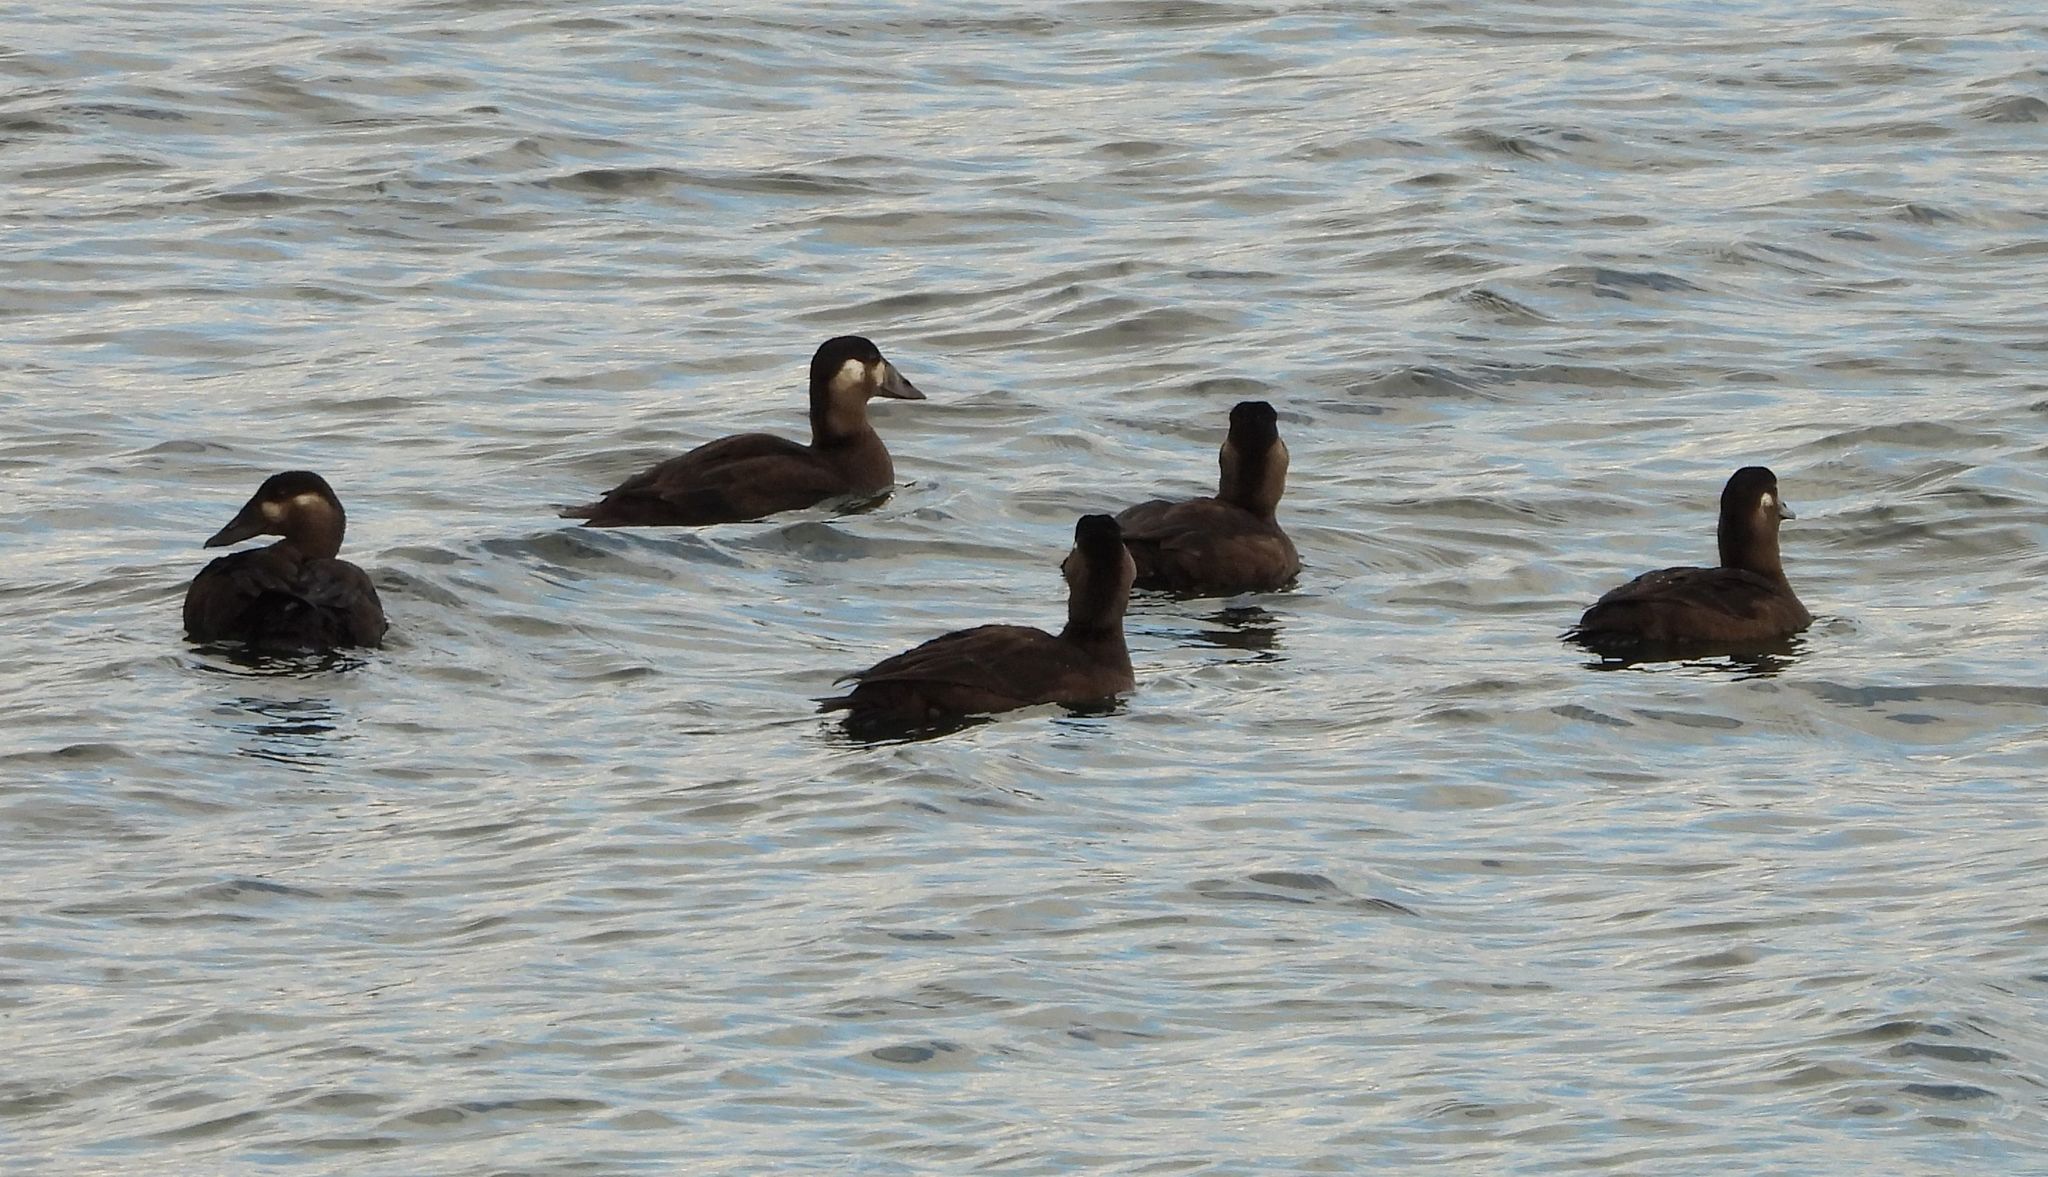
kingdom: Animalia
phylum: Chordata
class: Aves
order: Anseriformes
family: Anatidae
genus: Melanitta
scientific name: Melanitta perspicillata
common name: Surf scoter
